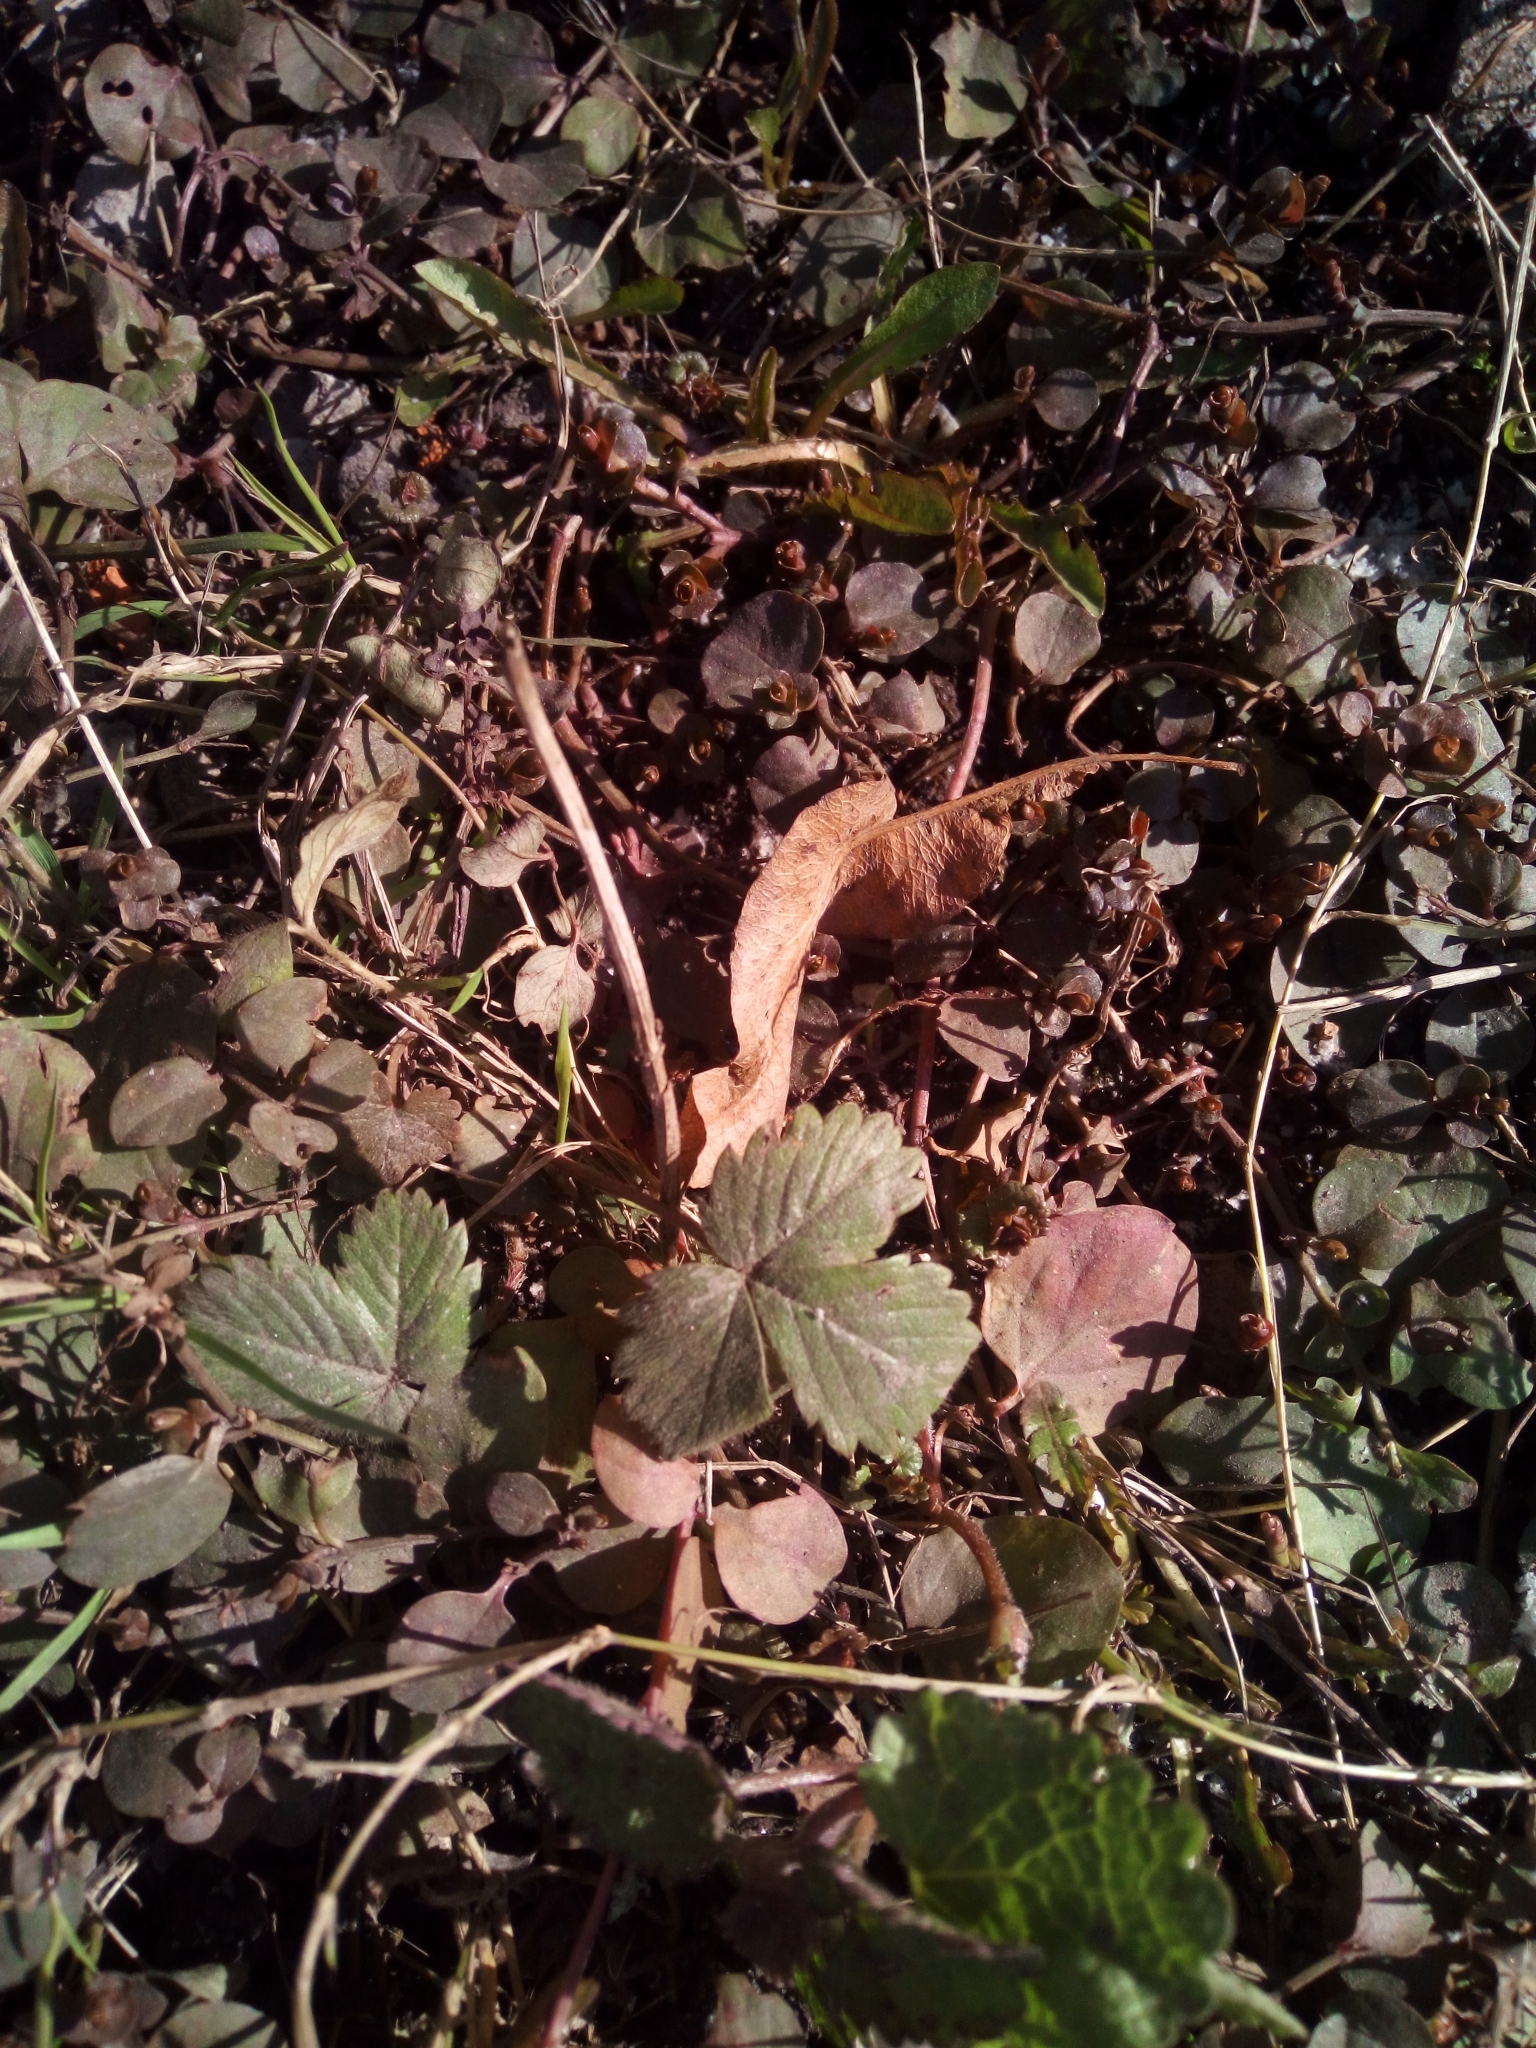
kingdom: Plantae
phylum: Tracheophyta
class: Magnoliopsida
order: Rosales
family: Rosaceae
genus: Fragaria
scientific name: Fragaria vesca
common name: Wild strawberry
